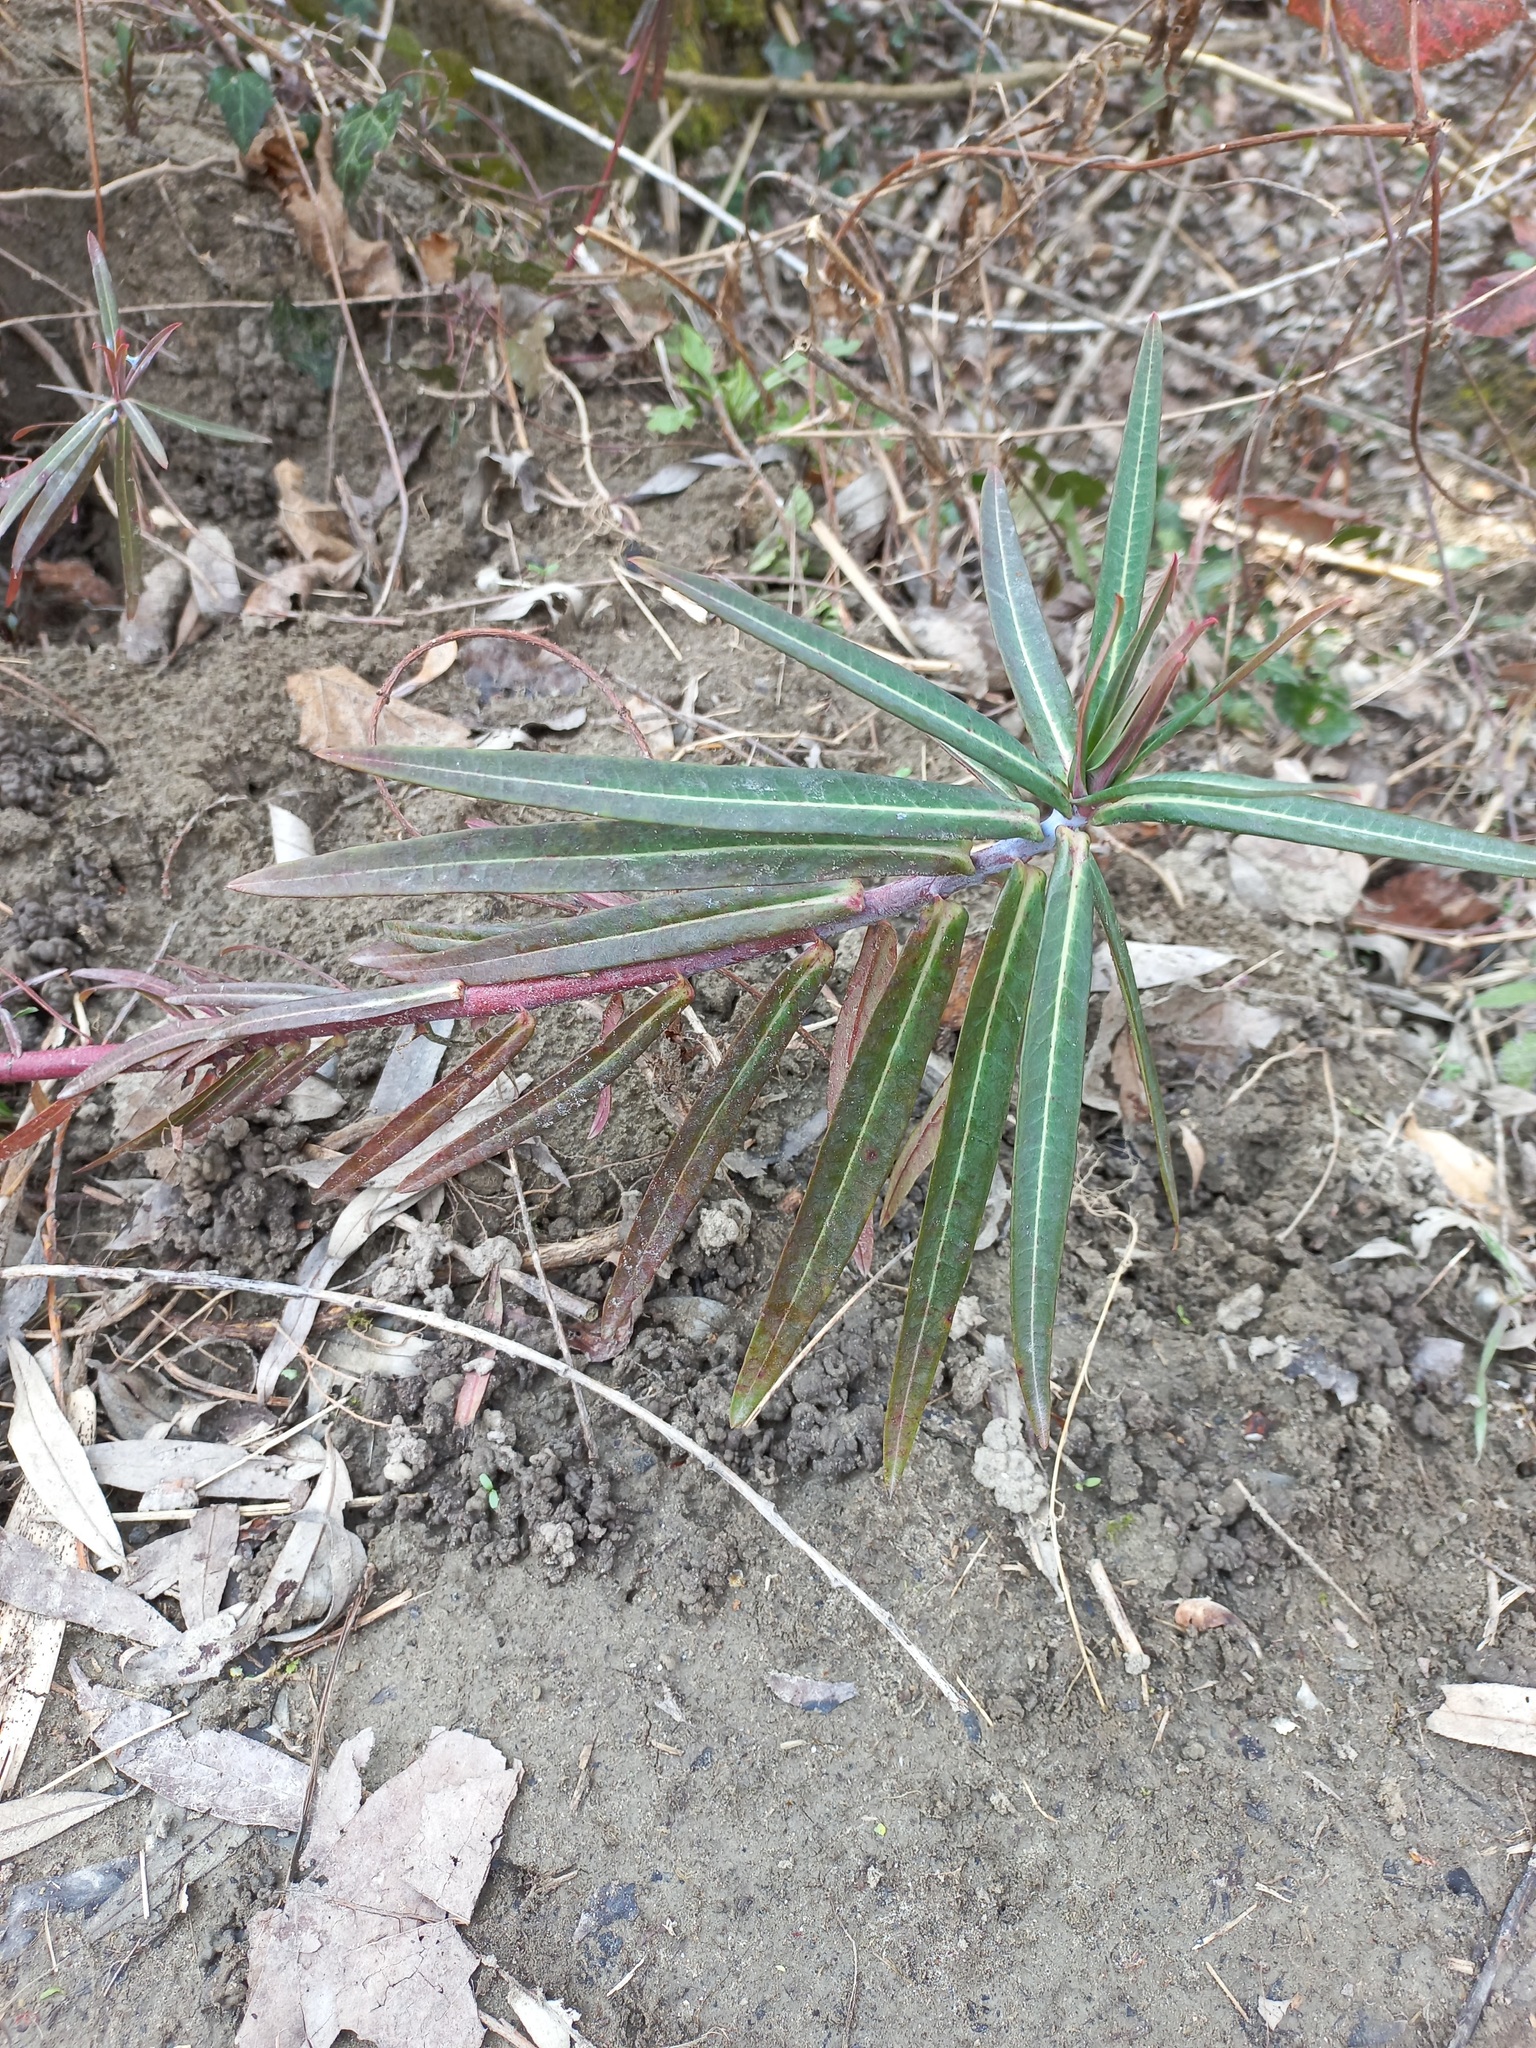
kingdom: Plantae
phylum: Tracheophyta
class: Magnoliopsida
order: Malpighiales
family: Euphorbiaceae
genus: Euphorbia
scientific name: Euphorbia lathyris
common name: Caper spurge
